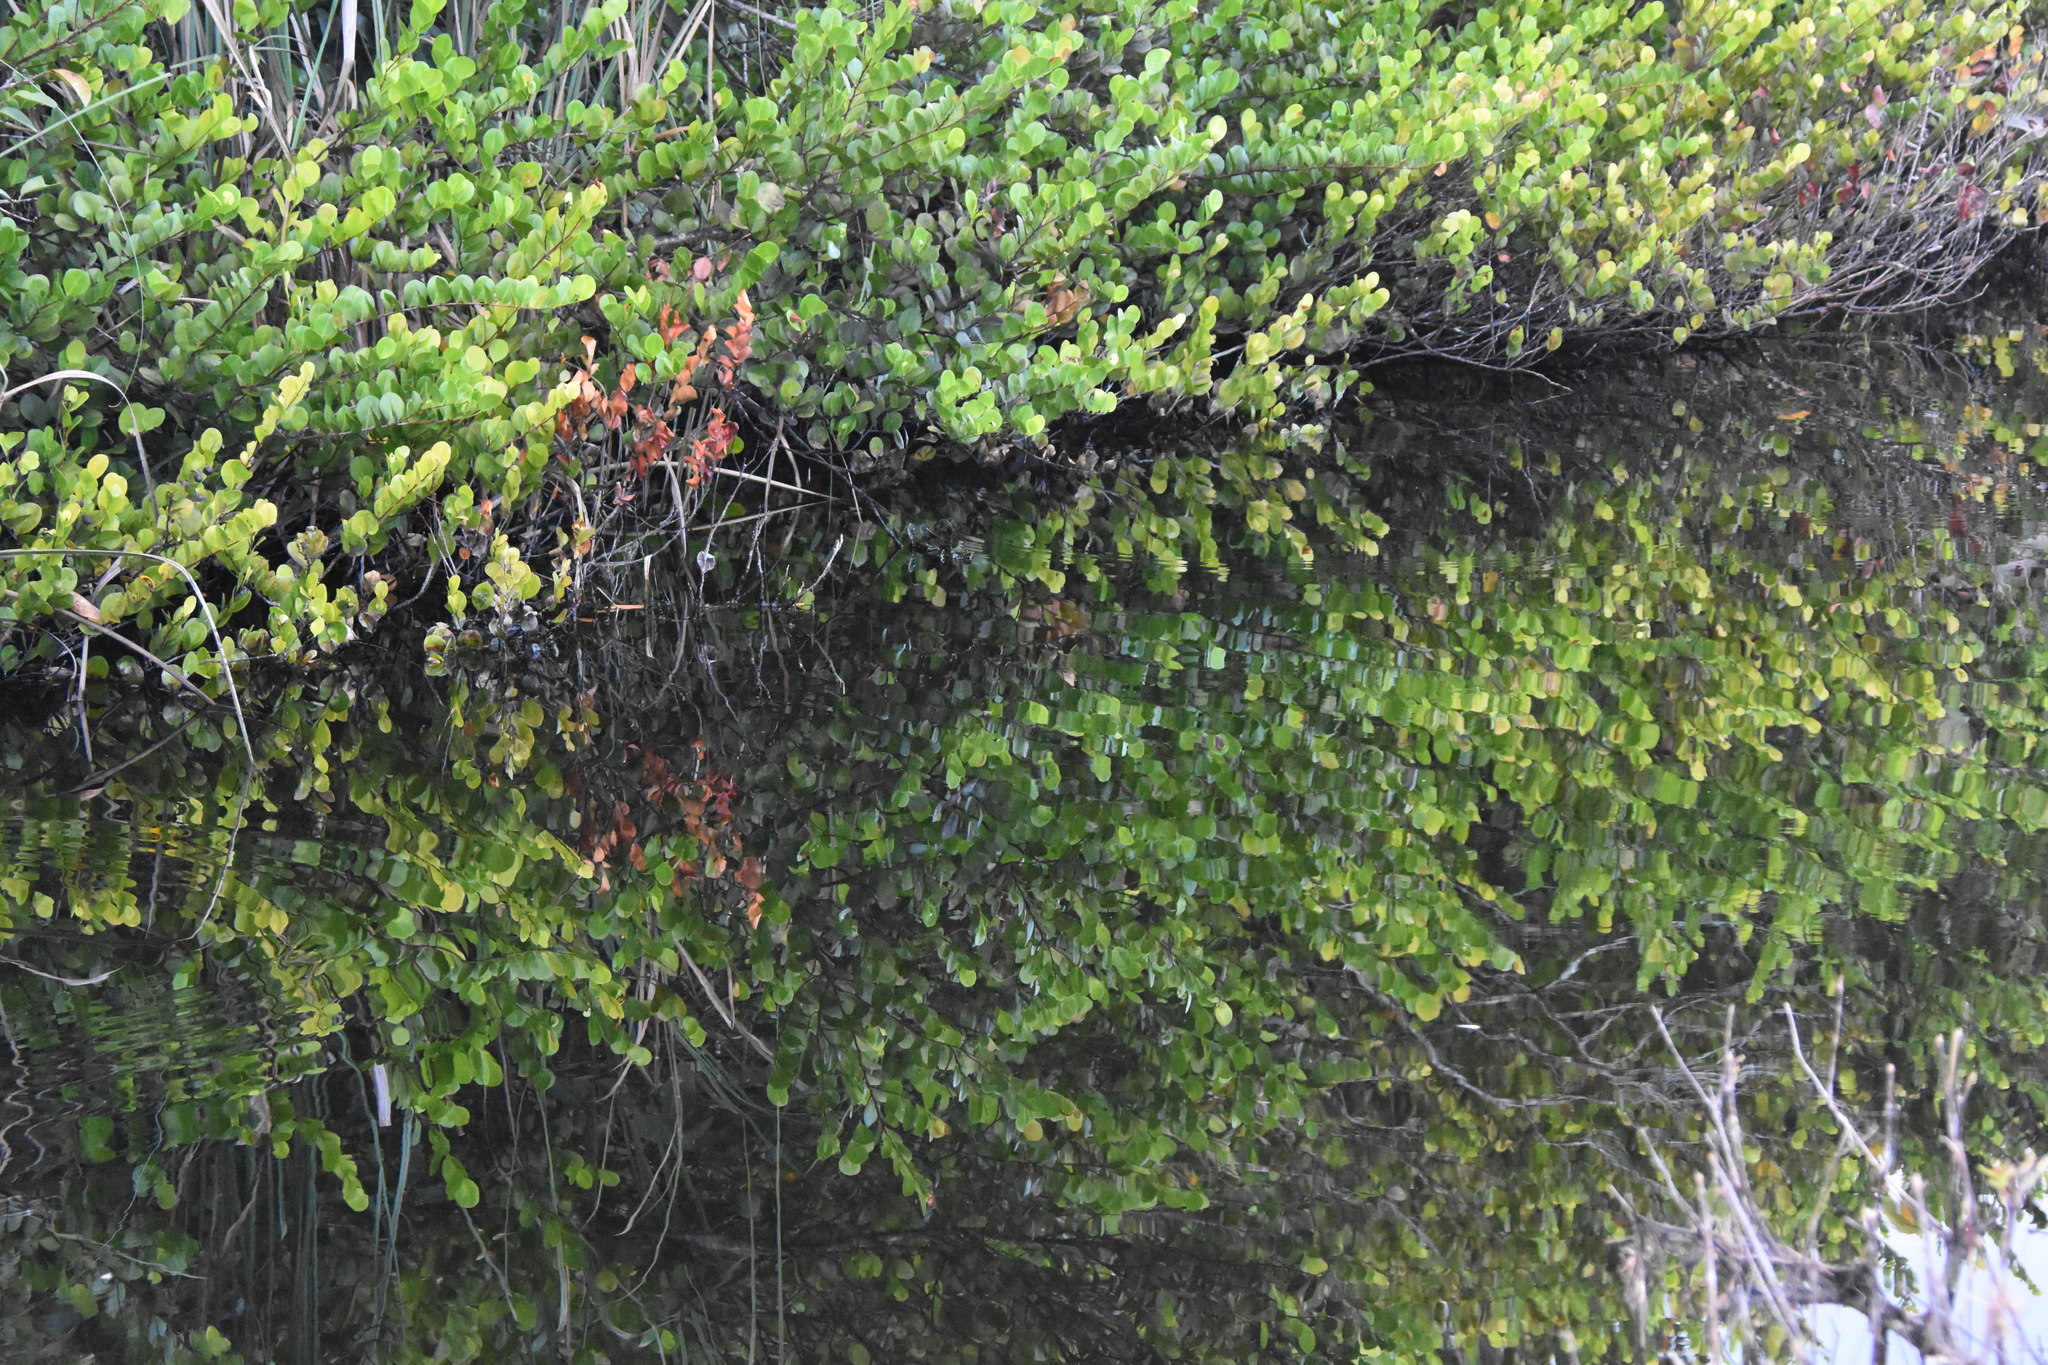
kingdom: Plantae
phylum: Tracheophyta
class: Magnoliopsida
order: Malpighiales
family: Chrysobalanaceae
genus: Chrysobalanus
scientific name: Chrysobalanus icaco
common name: Coco plum
